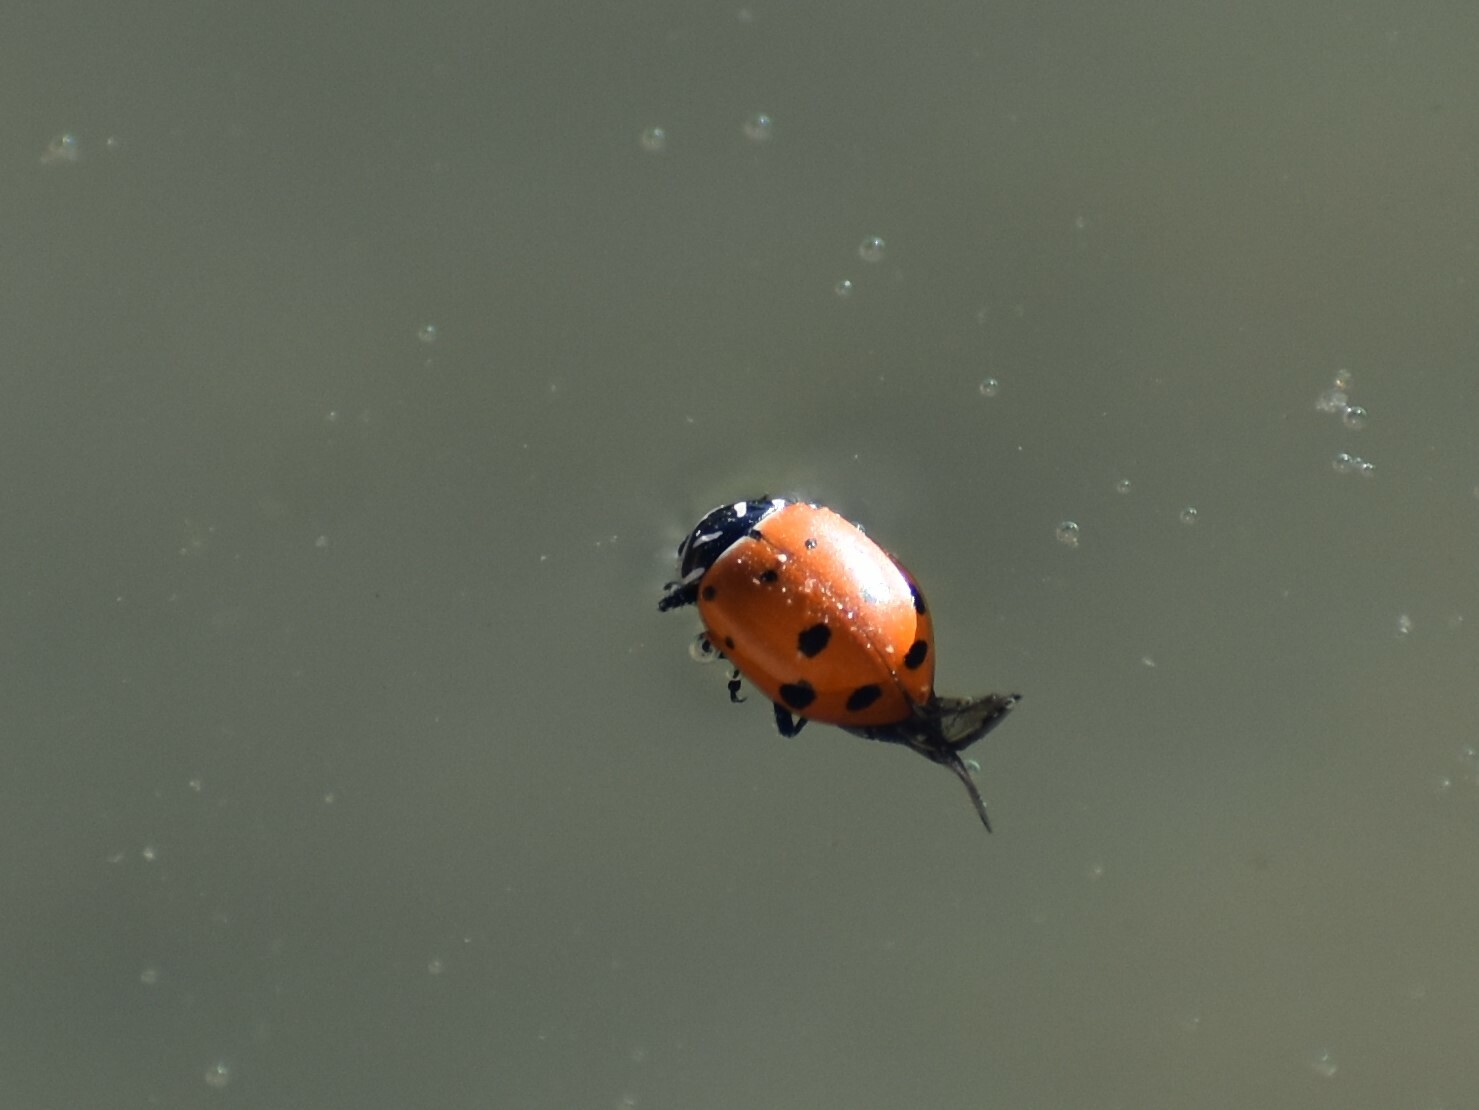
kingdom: Animalia
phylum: Arthropoda
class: Insecta
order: Coleoptera
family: Coccinellidae
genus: Hippodamia
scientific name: Hippodamia convergens
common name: Convergent lady beetle
